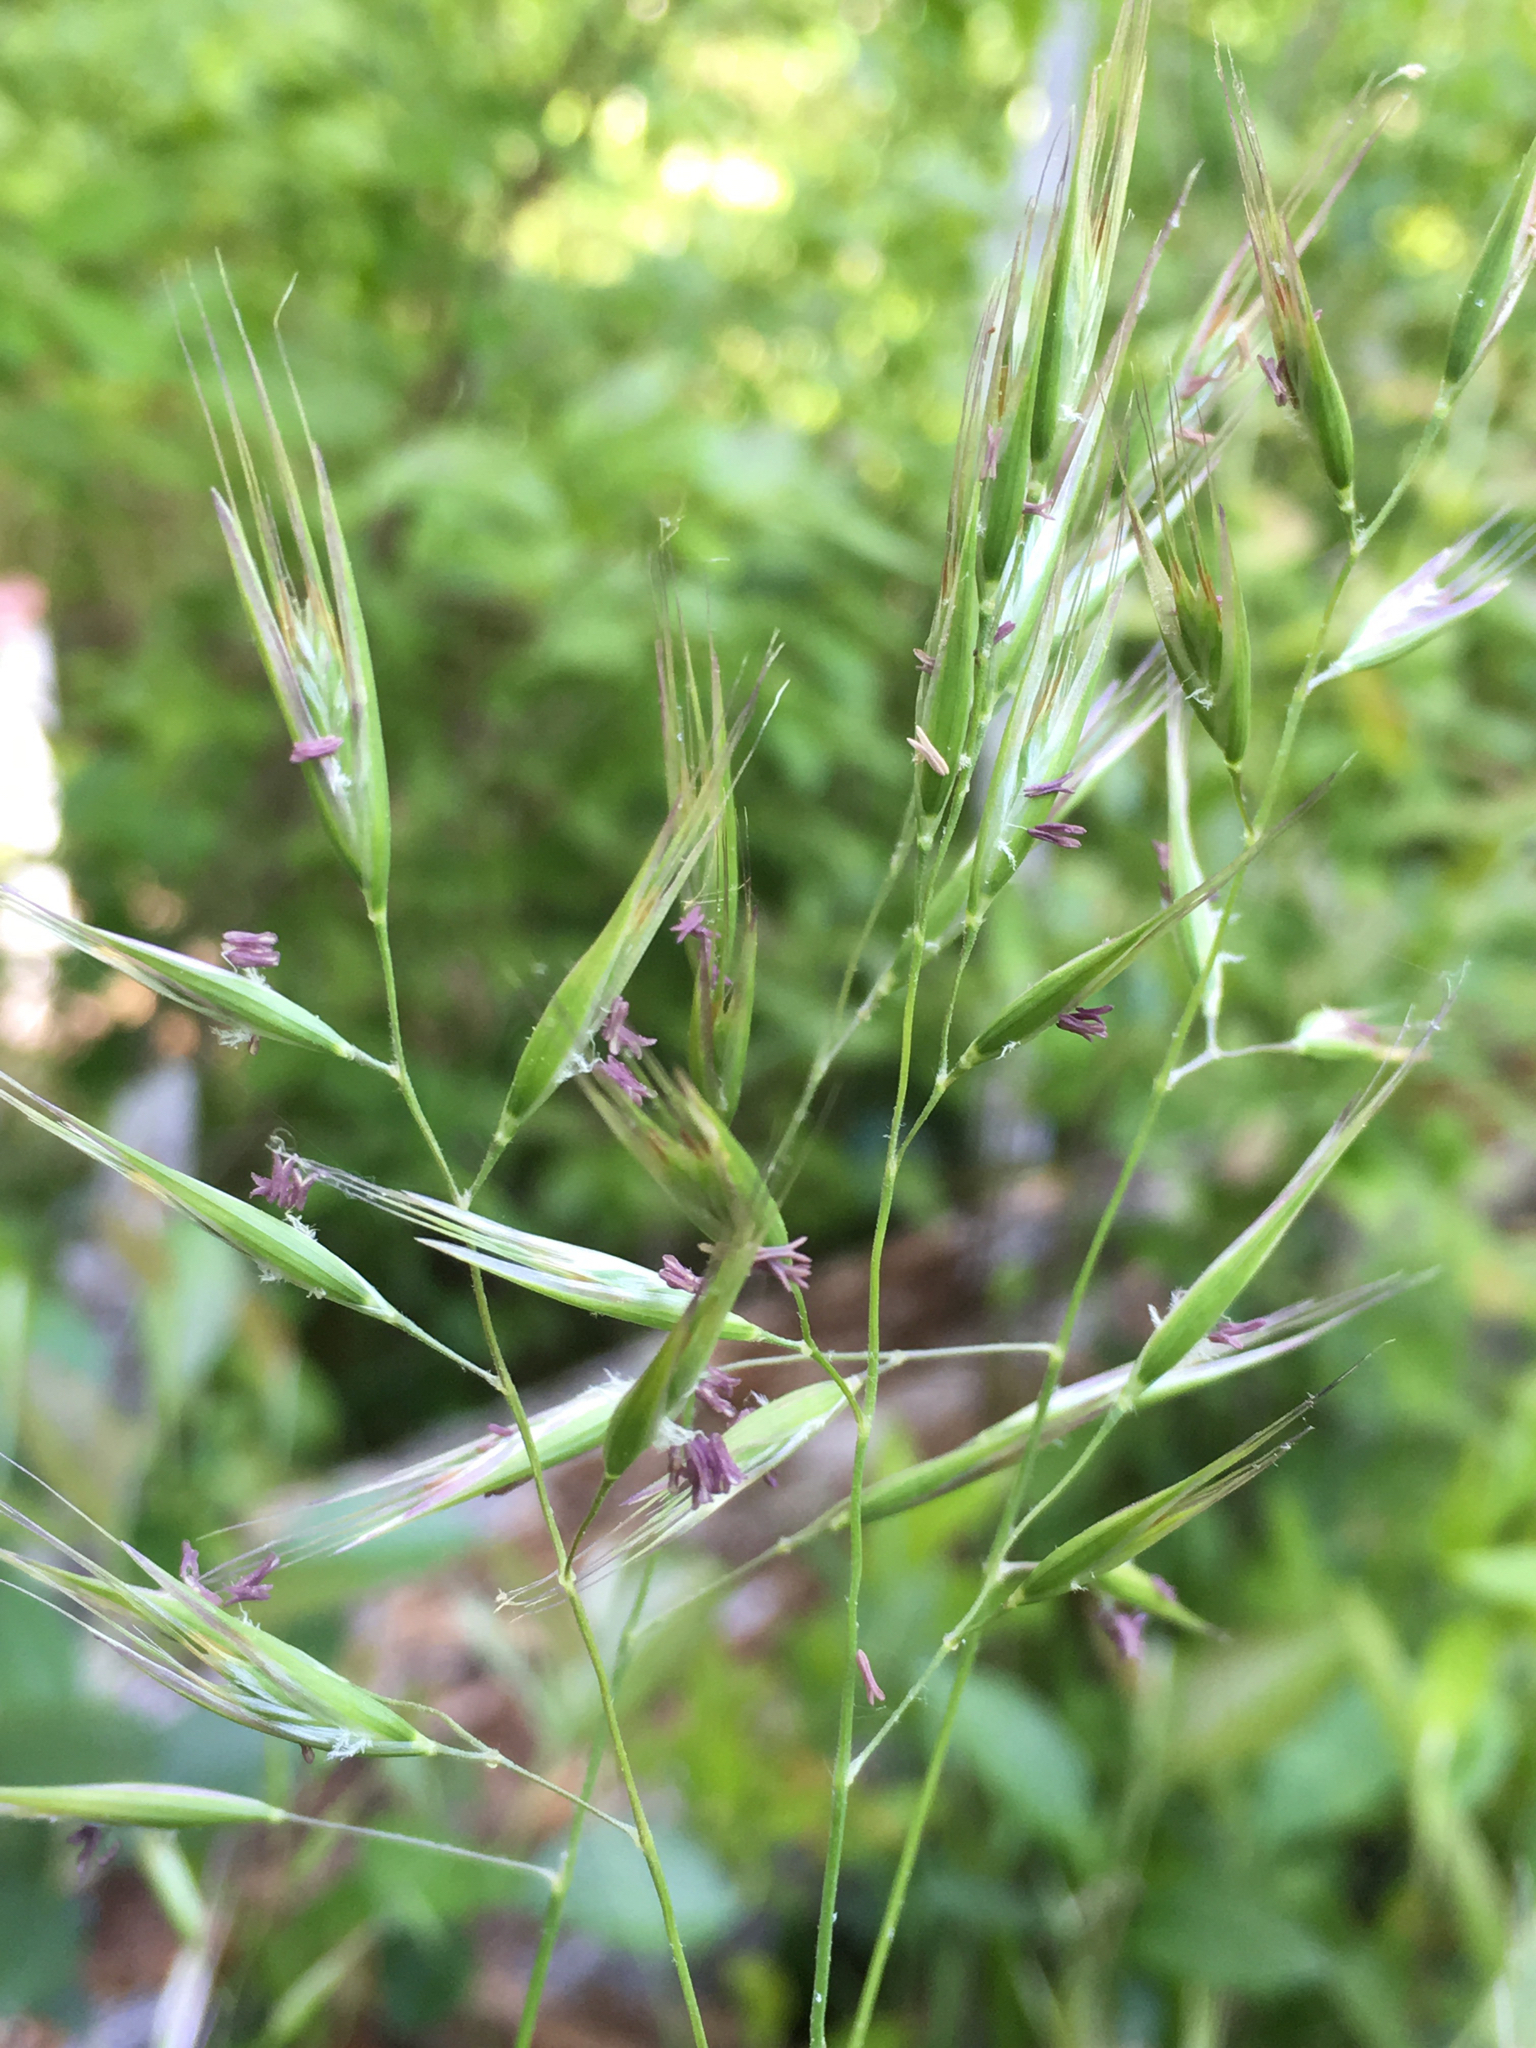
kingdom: Plantae
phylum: Tracheophyta
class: Liliopsida
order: Poales
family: Poaceae
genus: Danthonia
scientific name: Danthonia sericea
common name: Downy danthonia
